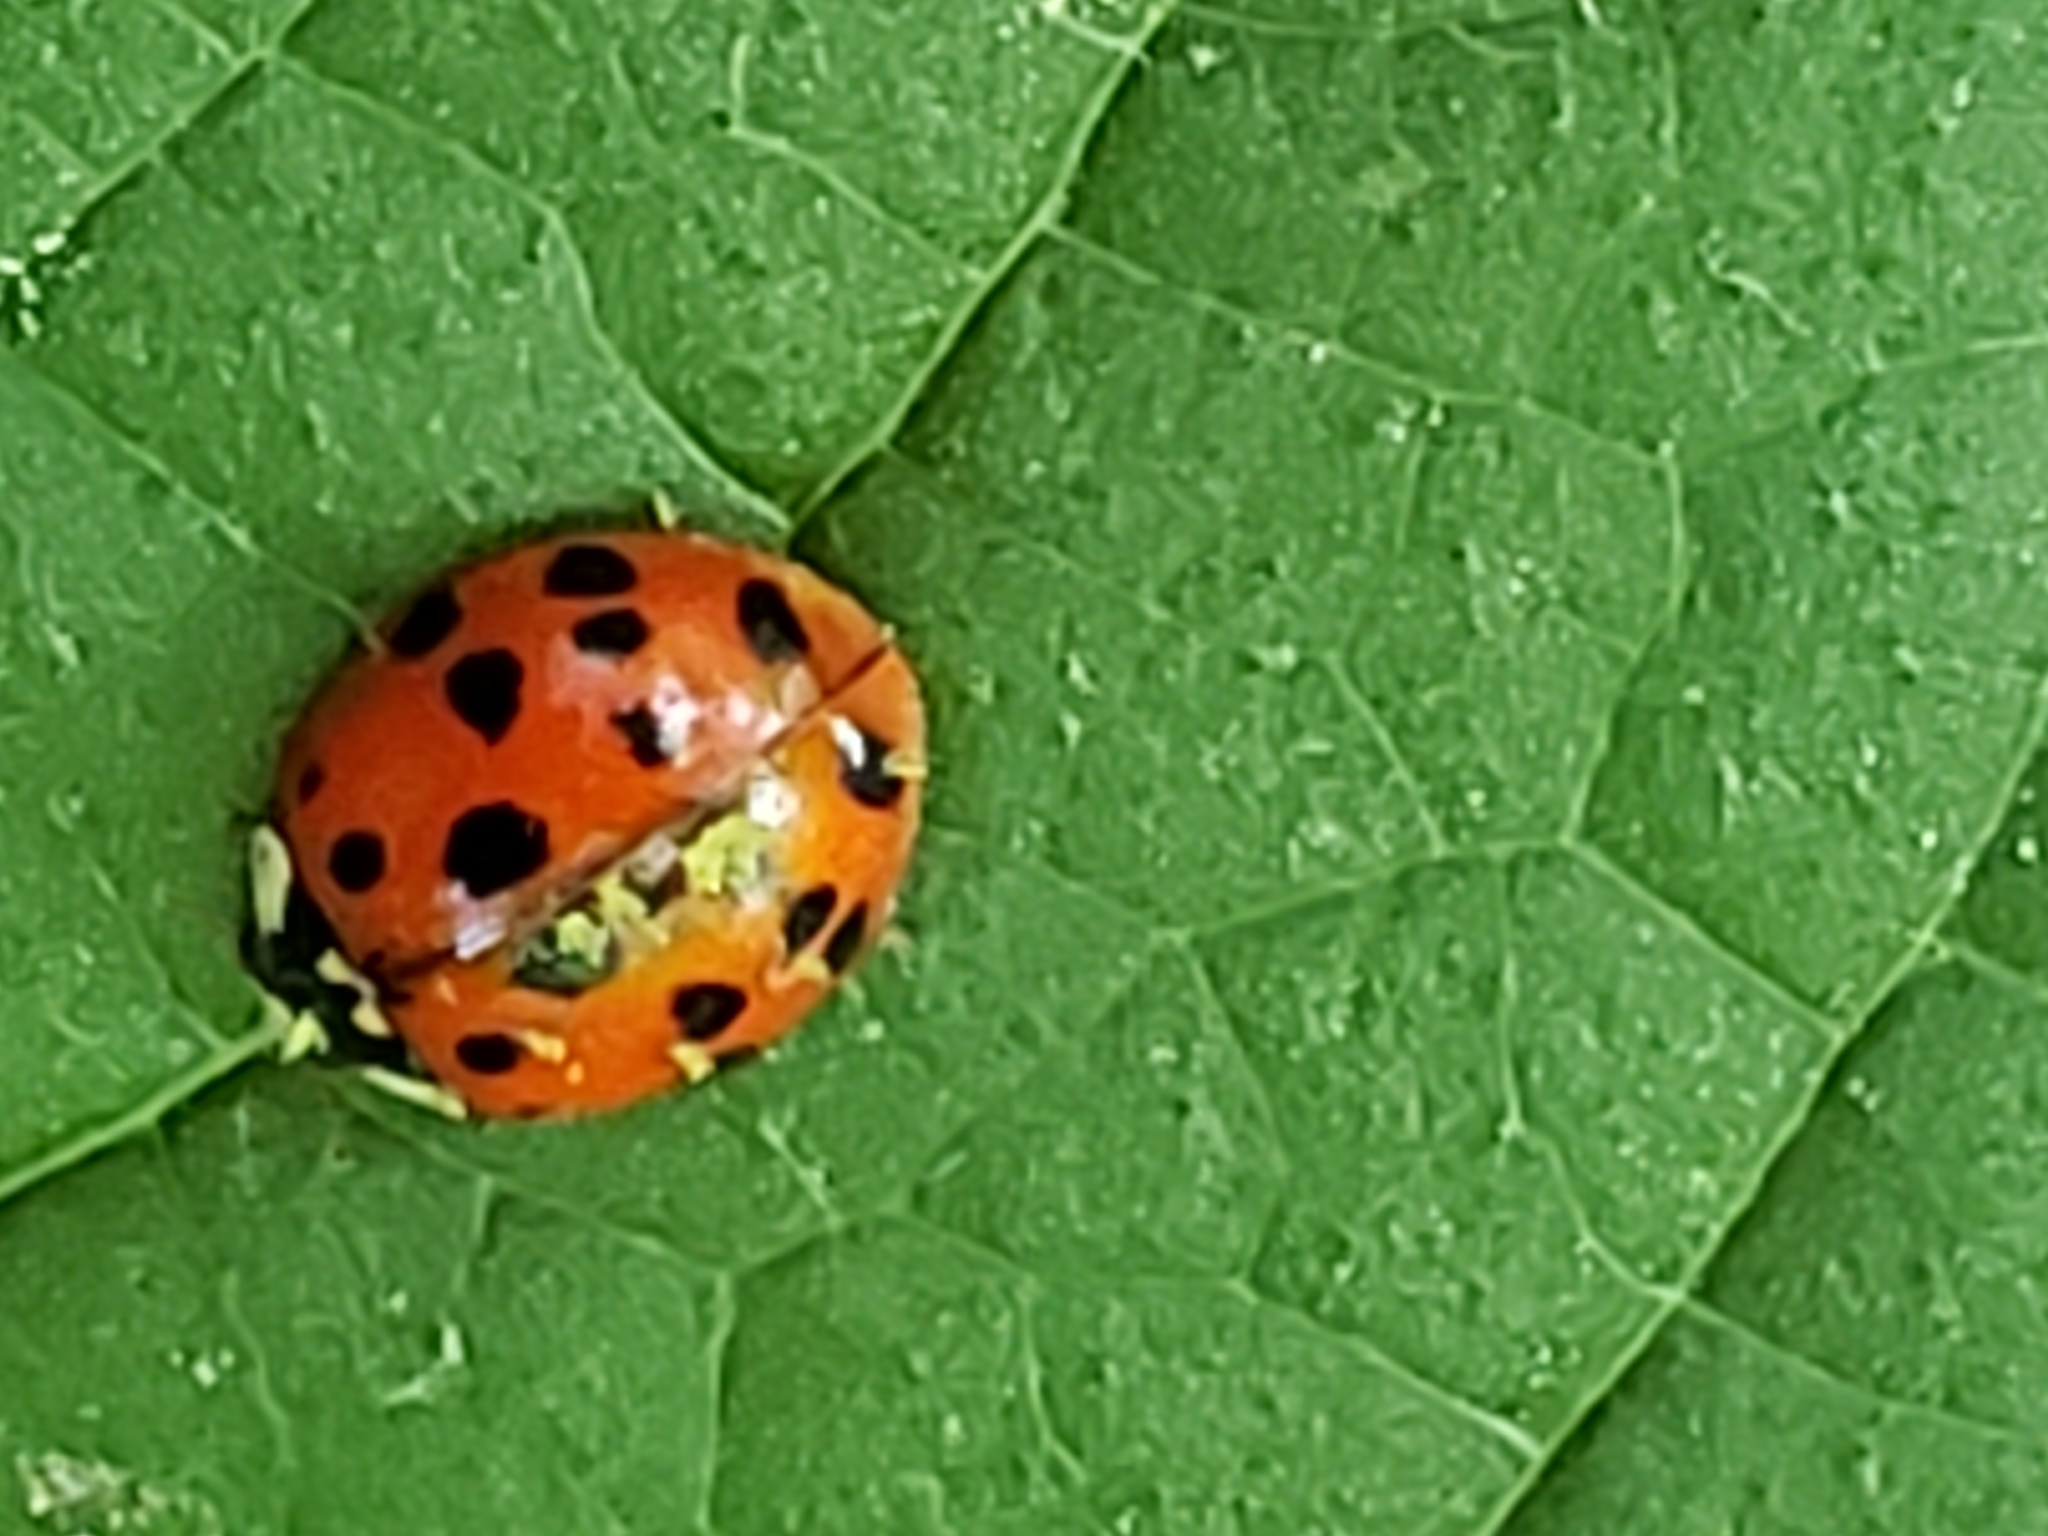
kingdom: Animalia
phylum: Arthropoda
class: Insecta
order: Coleoptera
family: Coccinellidae
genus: Harmonia
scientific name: Harmonia axyridis
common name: Harlequin ladybird
